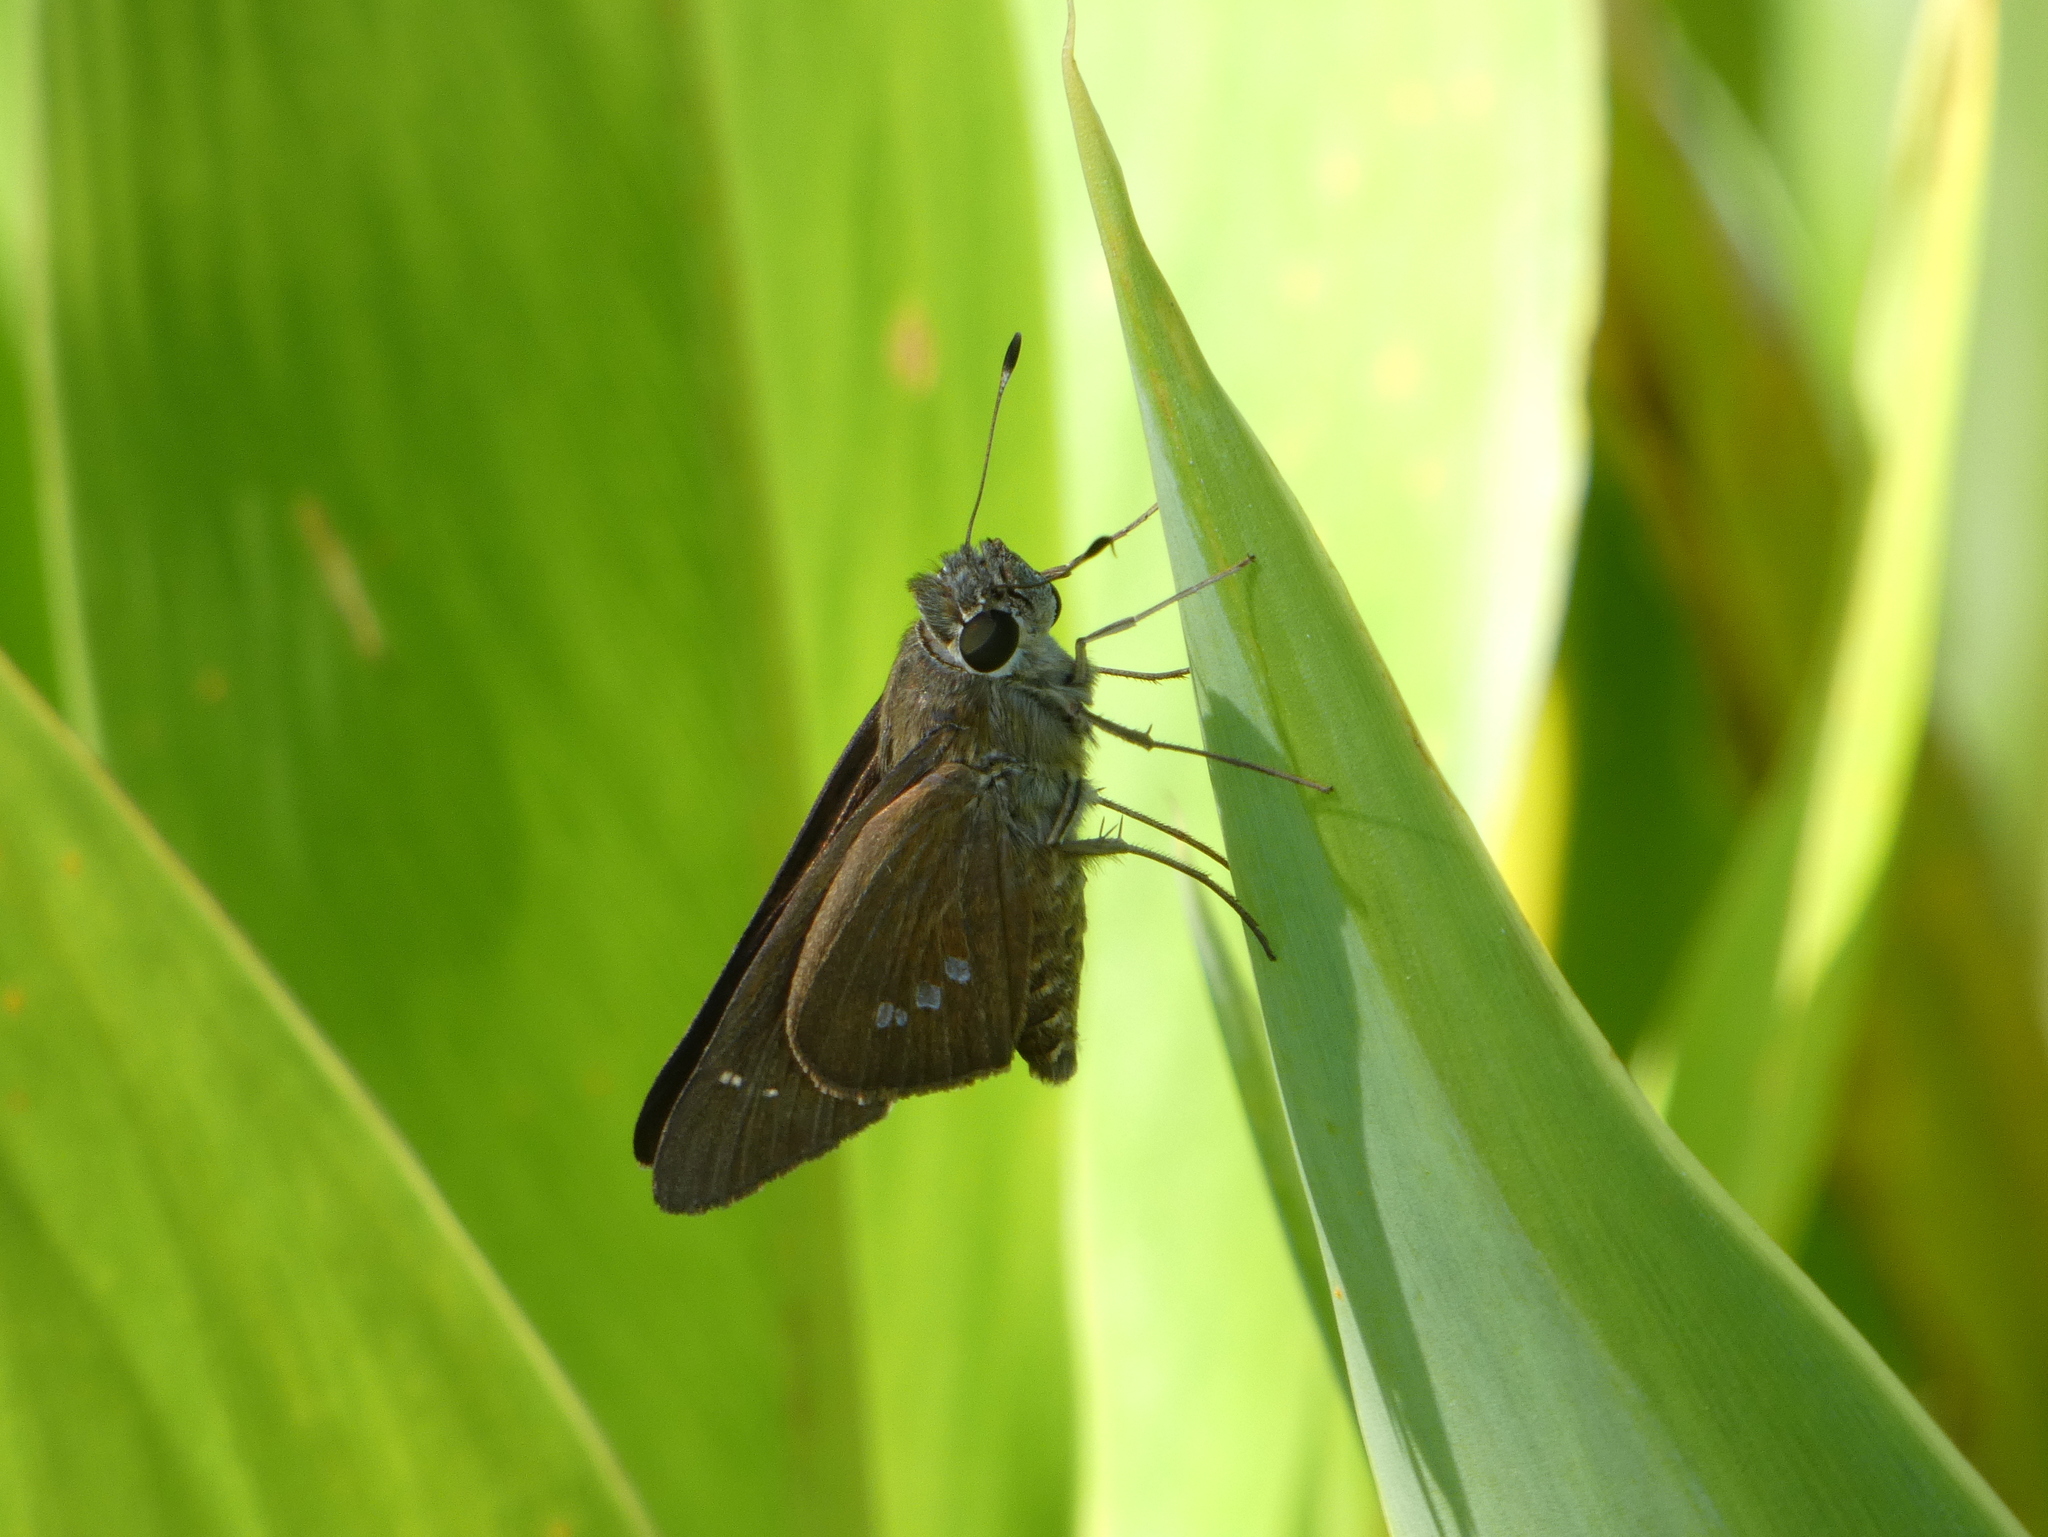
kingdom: Animalia
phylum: Arthropoda
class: Insecta
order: Lepidoptera
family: Hesperiidae
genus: Calpodes
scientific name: Calpodes ethlius
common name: Brazilian skipper
